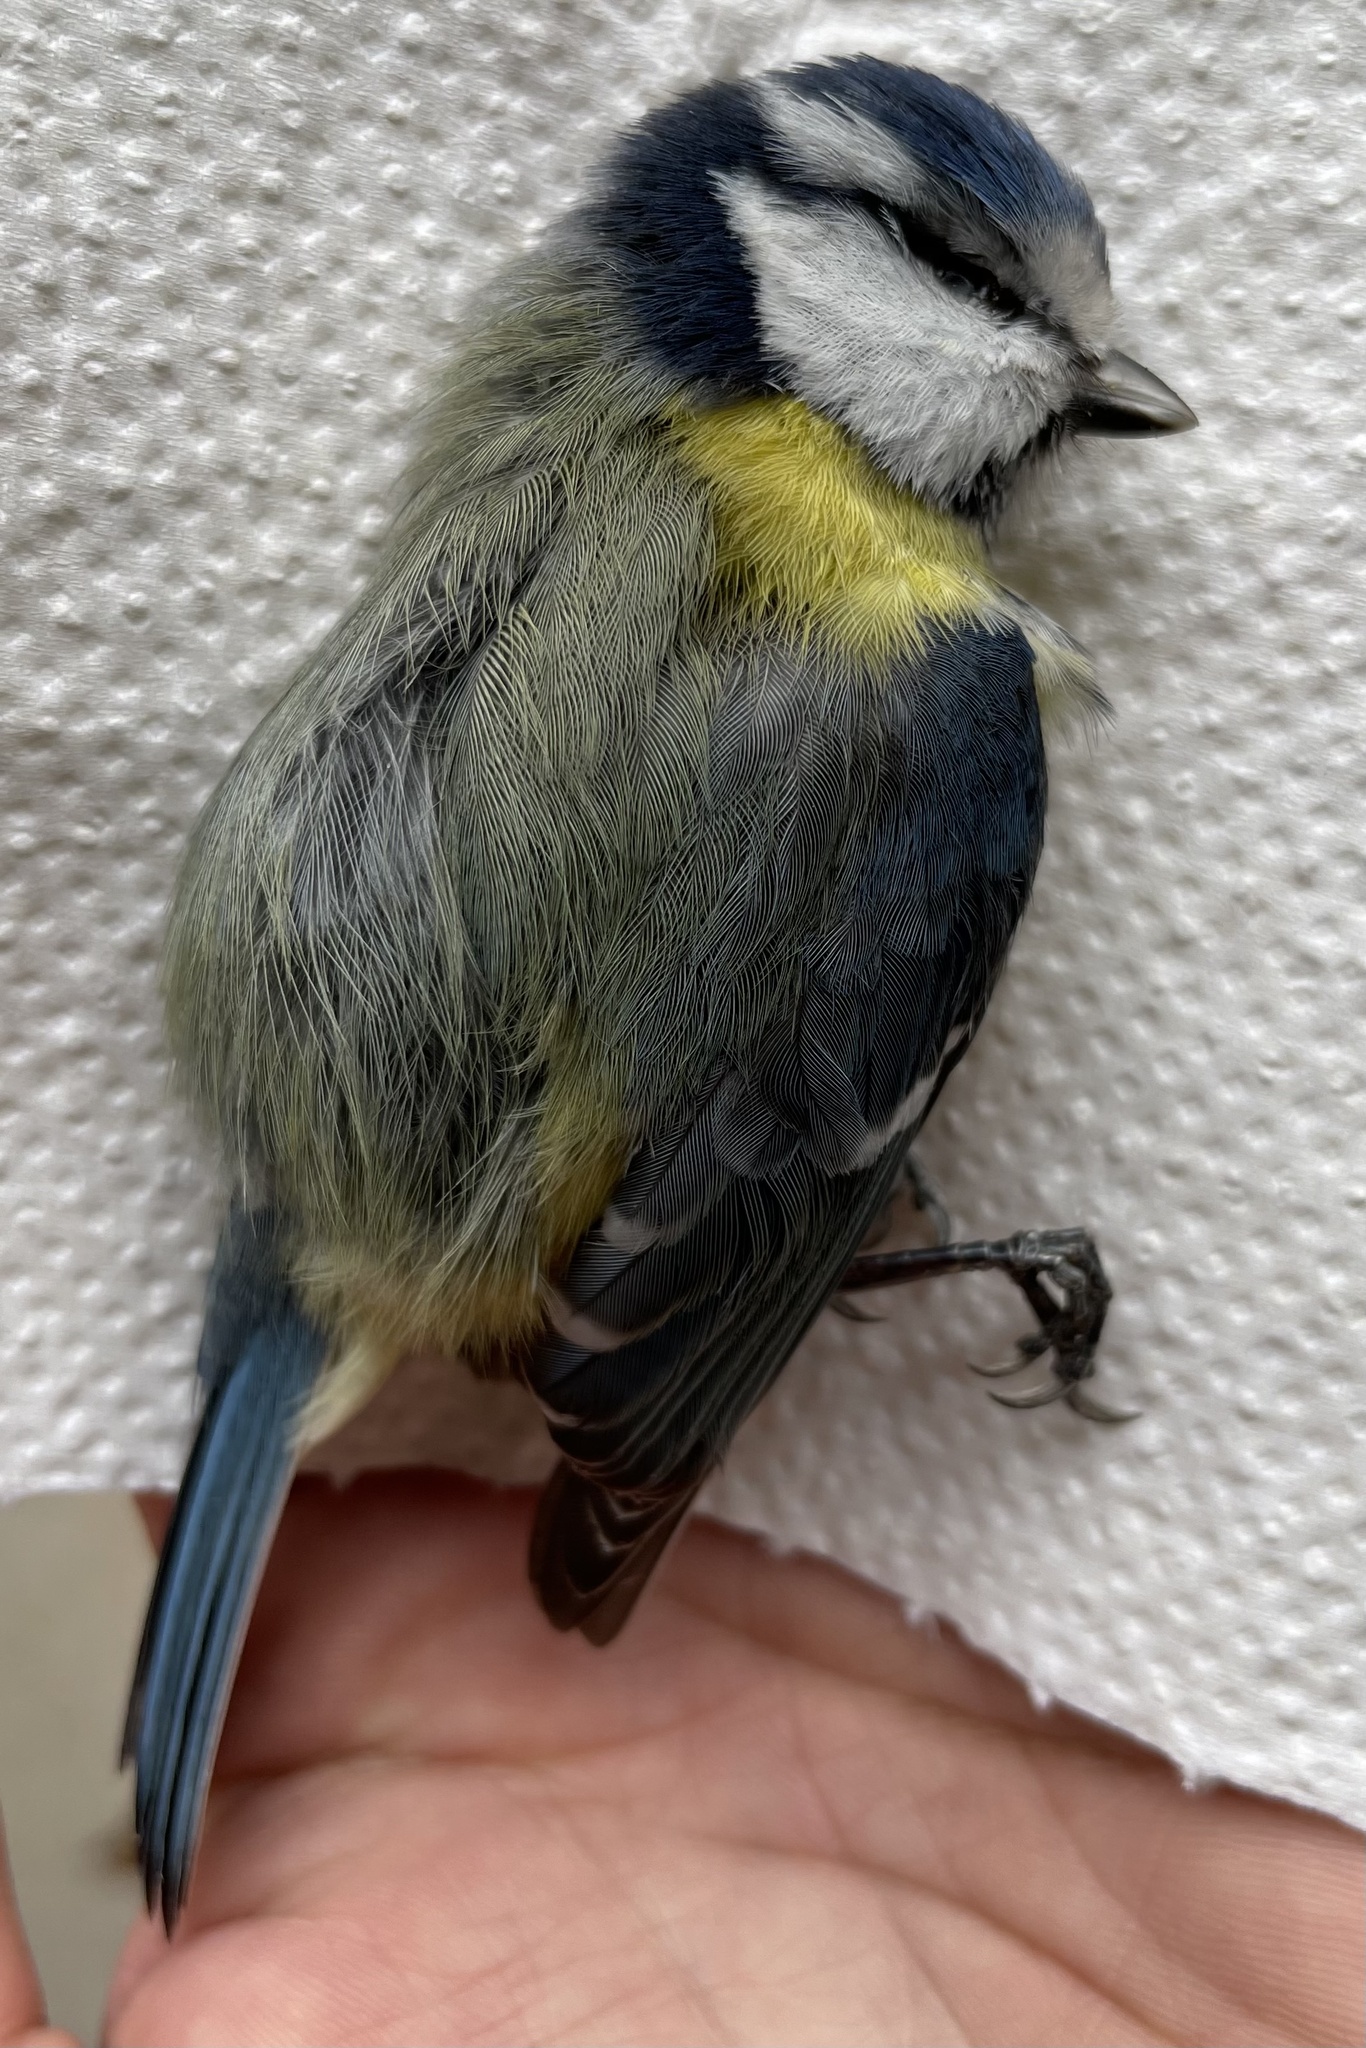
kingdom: Animalia
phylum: Chordata
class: Aves
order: Passeriformes
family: Paridae
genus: Cyanistes
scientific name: Cyanistes caeruleus
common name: Eurasian blue tit
